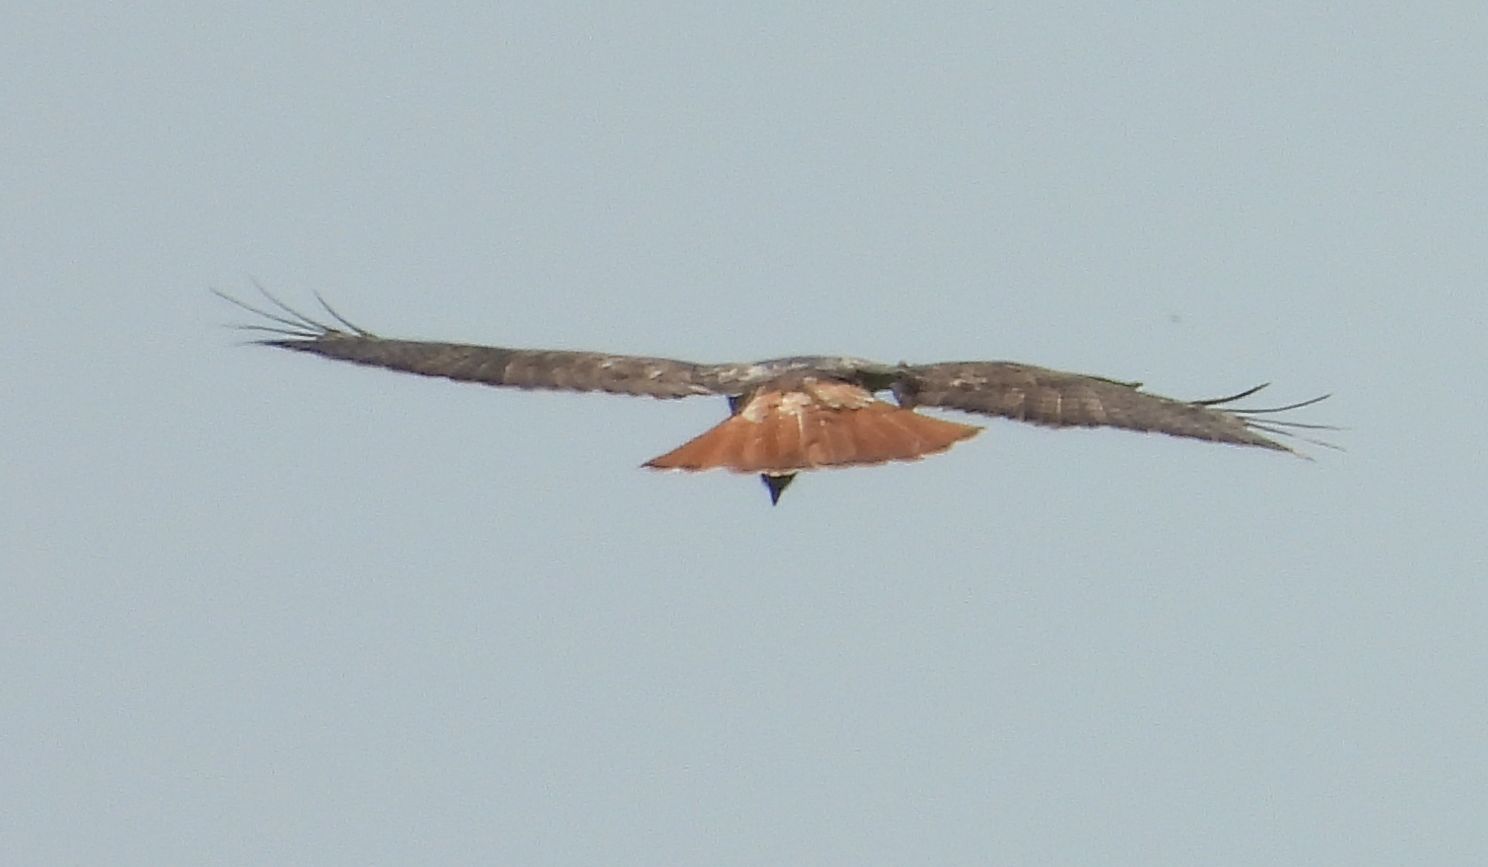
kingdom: Animalia
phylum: Chordata
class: Aves
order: Accipitriformes
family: Accipitridae
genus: Buteo
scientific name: Buteo jamaicensis
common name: Red-tailed hawk
